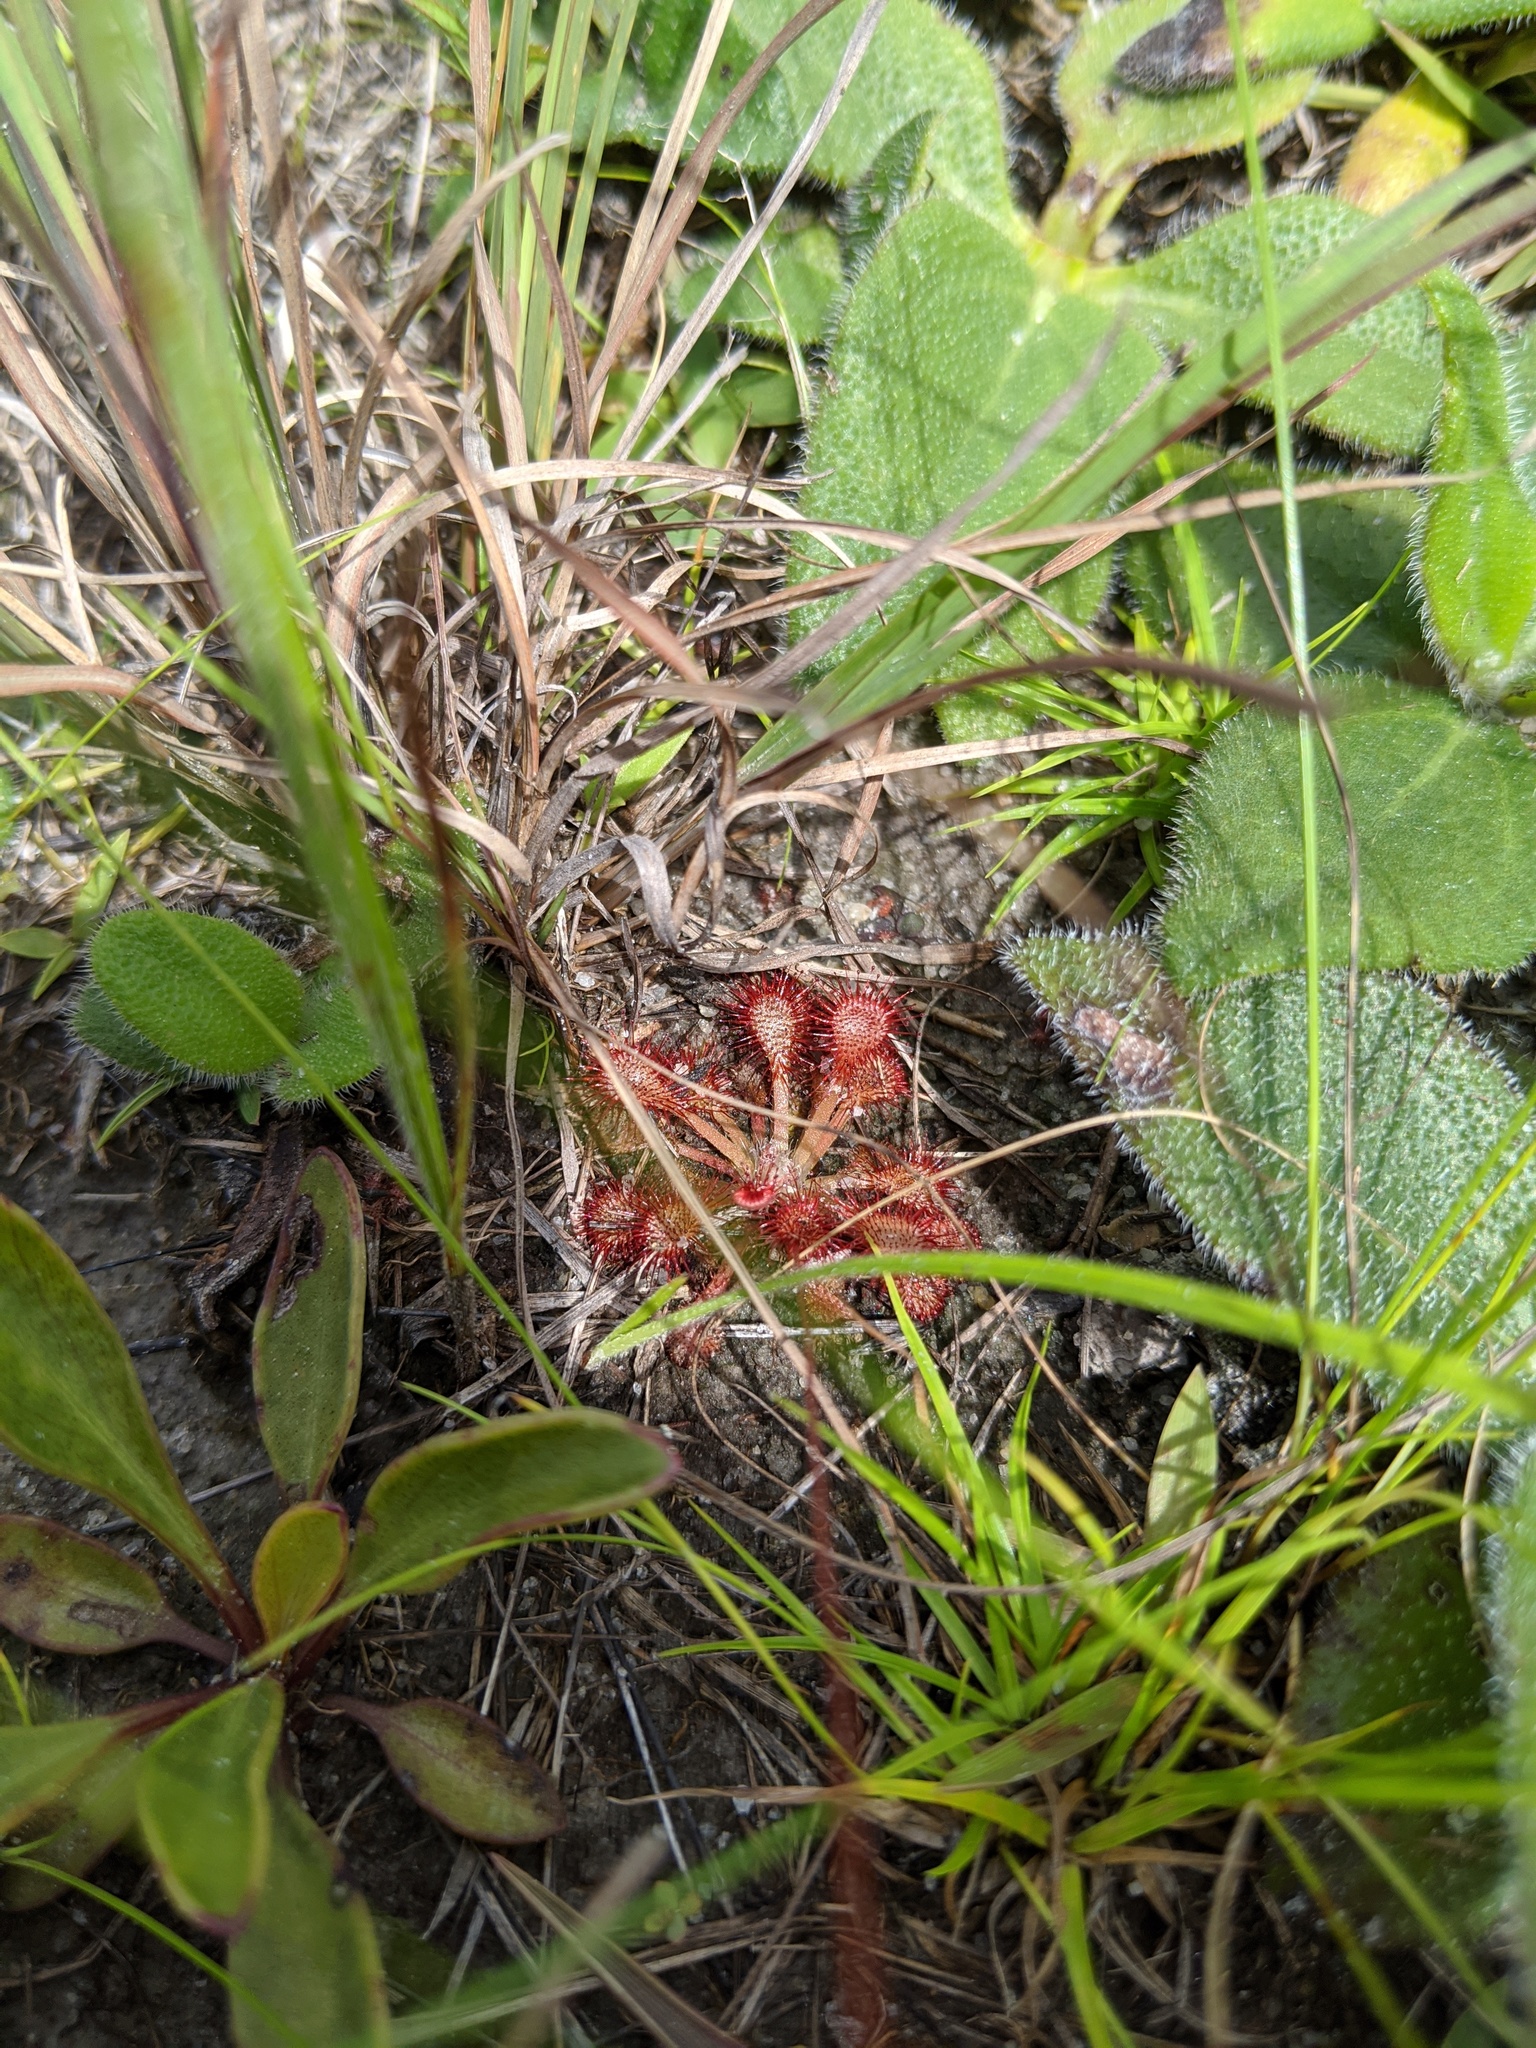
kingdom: Plantae
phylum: Tracheophyta
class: Magnoliopsida
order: Caryophyllales
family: Droseraceae
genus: Drosera
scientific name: Drosera capillaris
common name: Pink sundew
